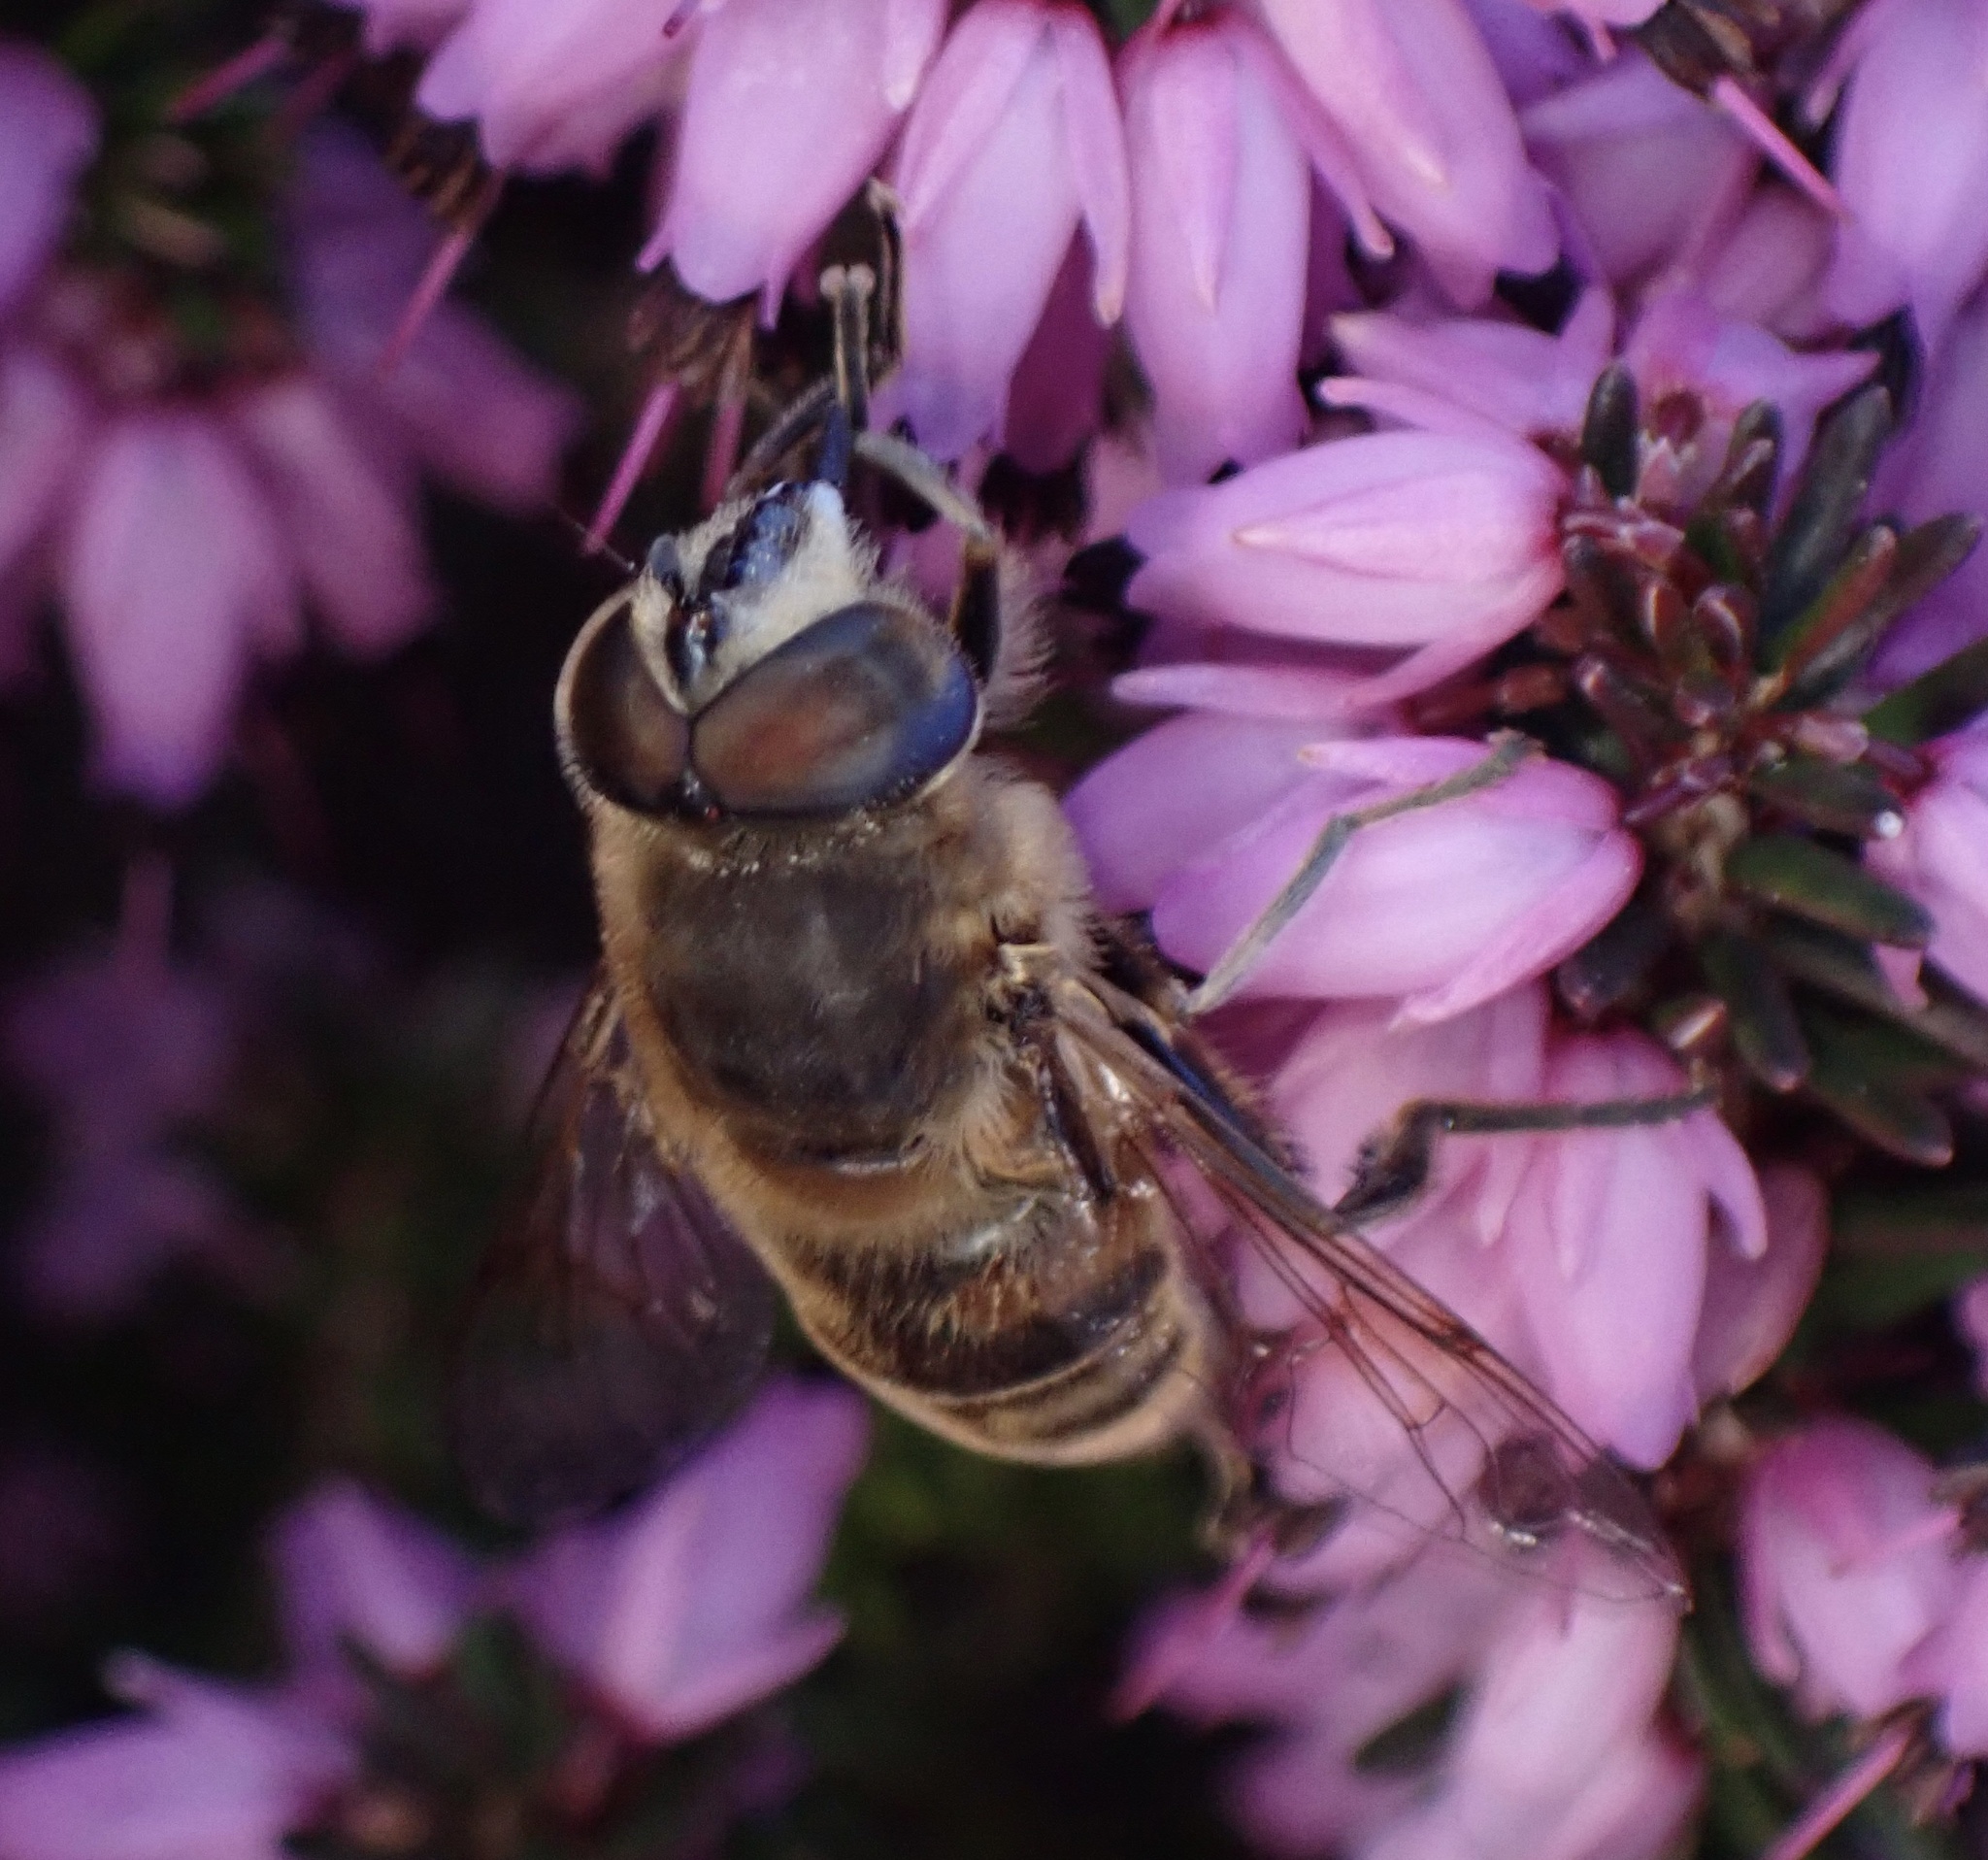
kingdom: Animalia
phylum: Arthropoda
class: Insecta
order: Diptera
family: Syrphidae
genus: Eristalis
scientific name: Eristalis tenax
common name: Drone fly
